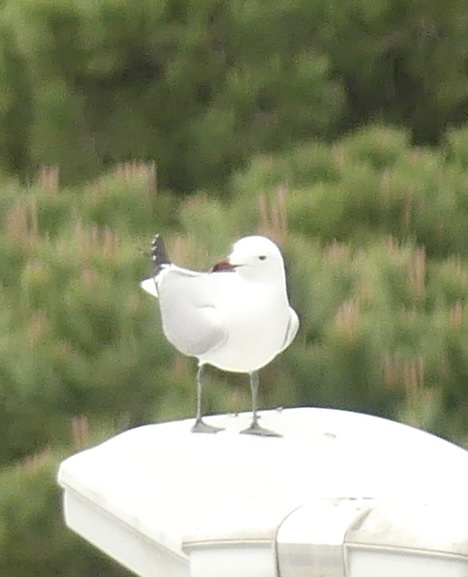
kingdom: Animalia
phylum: Chordata
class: Aves
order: Charadriiformes
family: Laridae
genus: Ichthyaetus
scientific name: Ichthyaetus audouinii
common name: Audouin's gull
